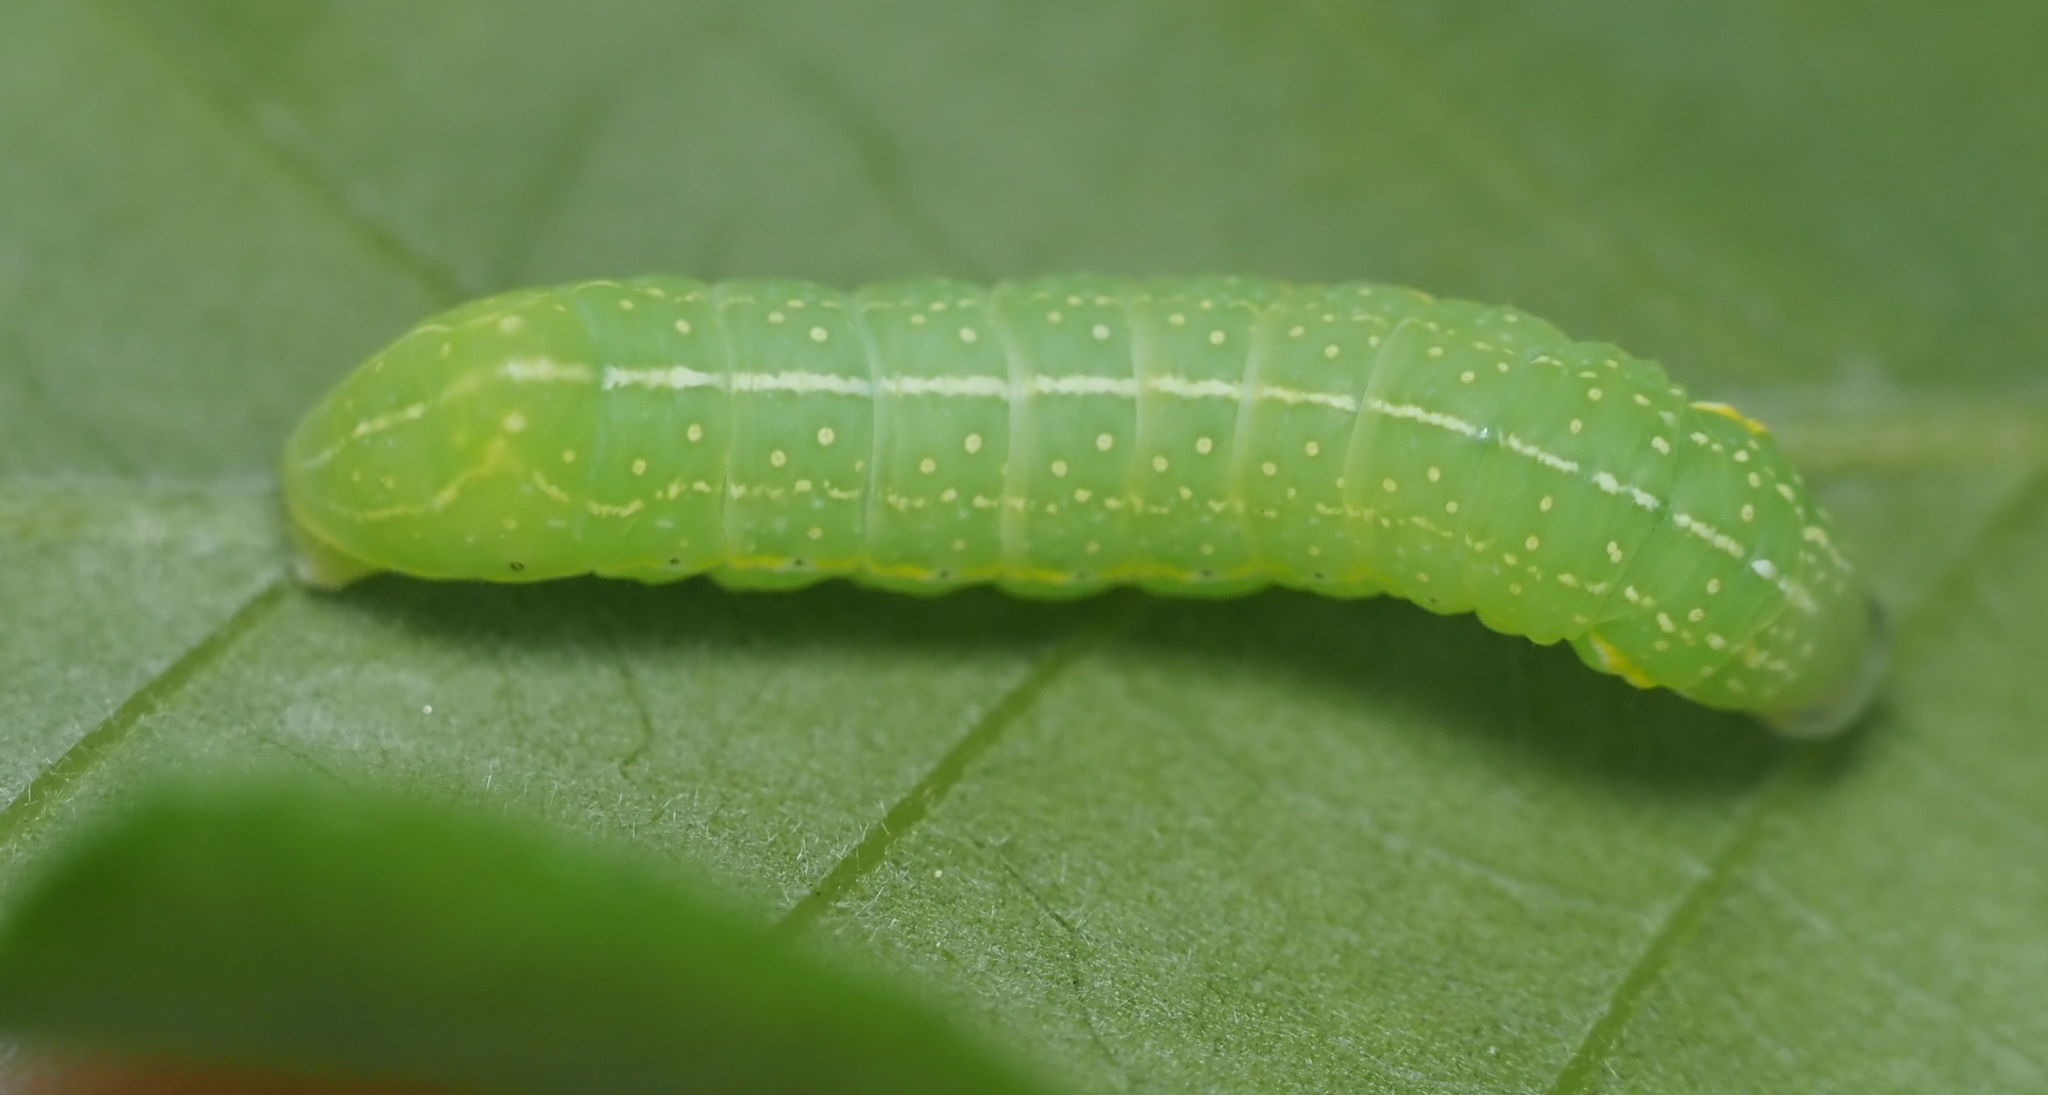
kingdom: Animalia
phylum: Arthropoda
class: Insecta
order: Lepidoptera
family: Noctuidae
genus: Amphipyra
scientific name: Amphipyra pyramidoides
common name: American copper underwing
